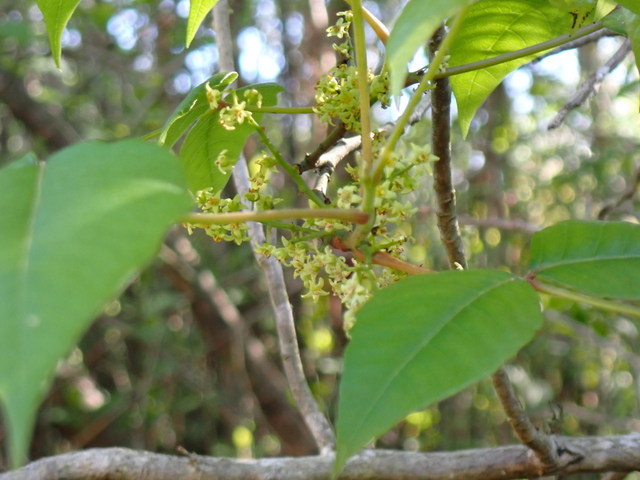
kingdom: Plantae
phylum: Tracheophyta
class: Magnoliopsida
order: Sapindales
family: Anacardiaceae
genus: Toxicodendron
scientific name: Toxicodendron radicans
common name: Poison ivy
